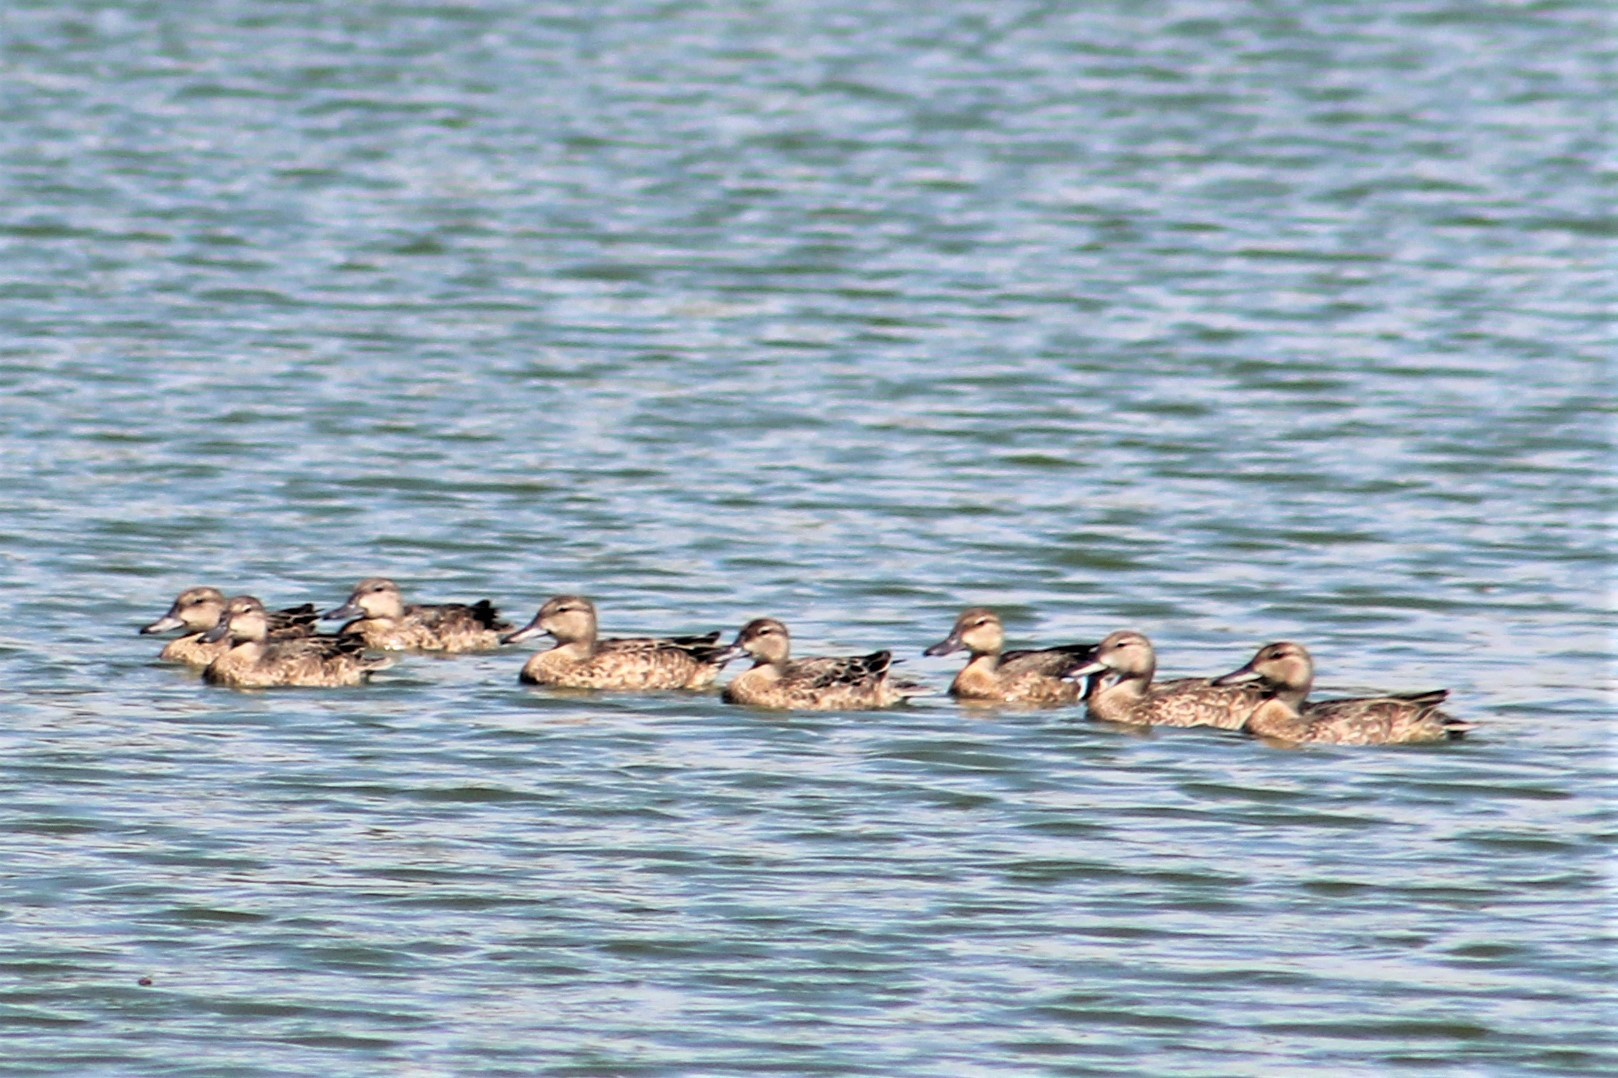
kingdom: Animalia
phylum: Chordata
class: Aves
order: Anseriformes
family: Anatidae
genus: Spatula
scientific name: Spatula discors
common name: Blue-winged teal
